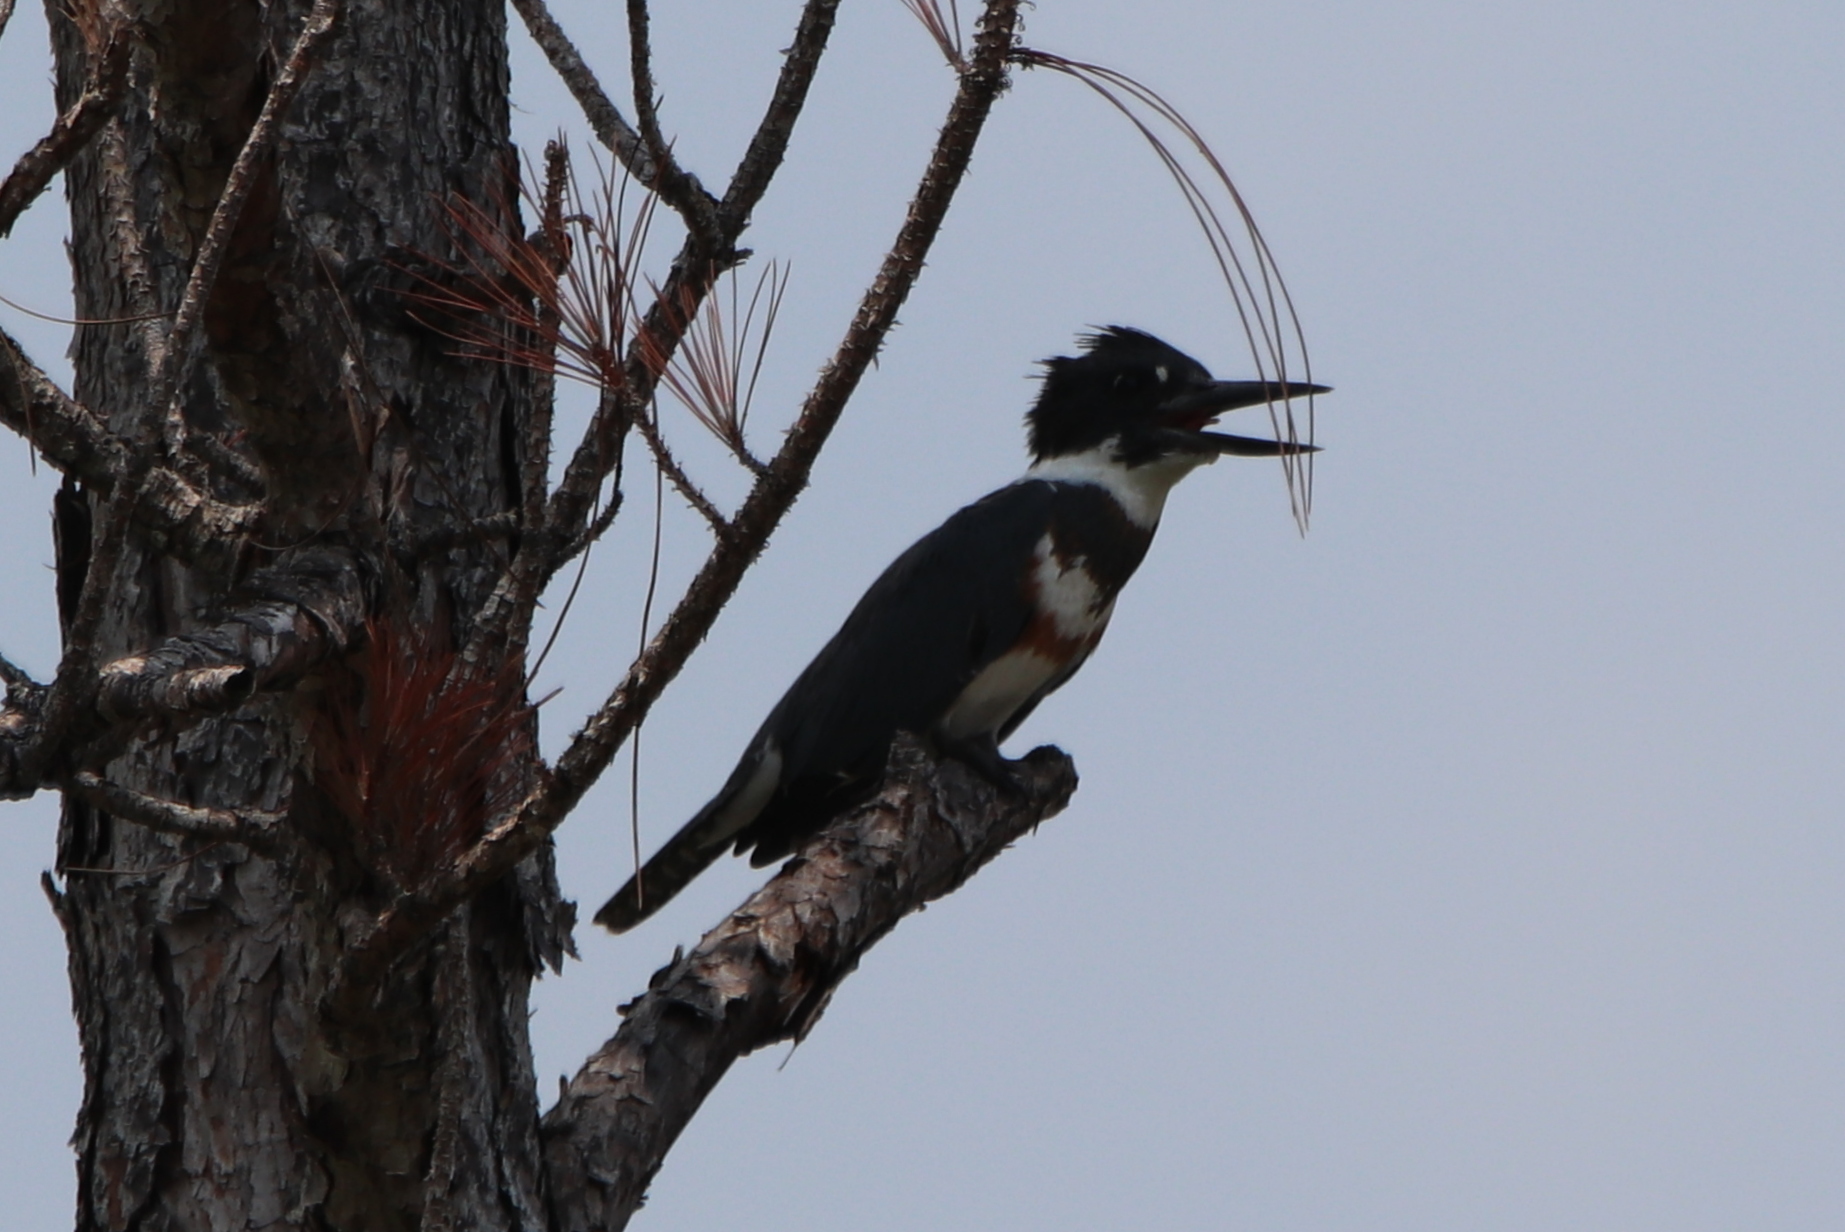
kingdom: Animalia
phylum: Chordata
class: Aves
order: Coraciiformes
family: Alcedinidae
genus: Megaceryle
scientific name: Megaceryle alcyon
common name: Belted kingfisher
